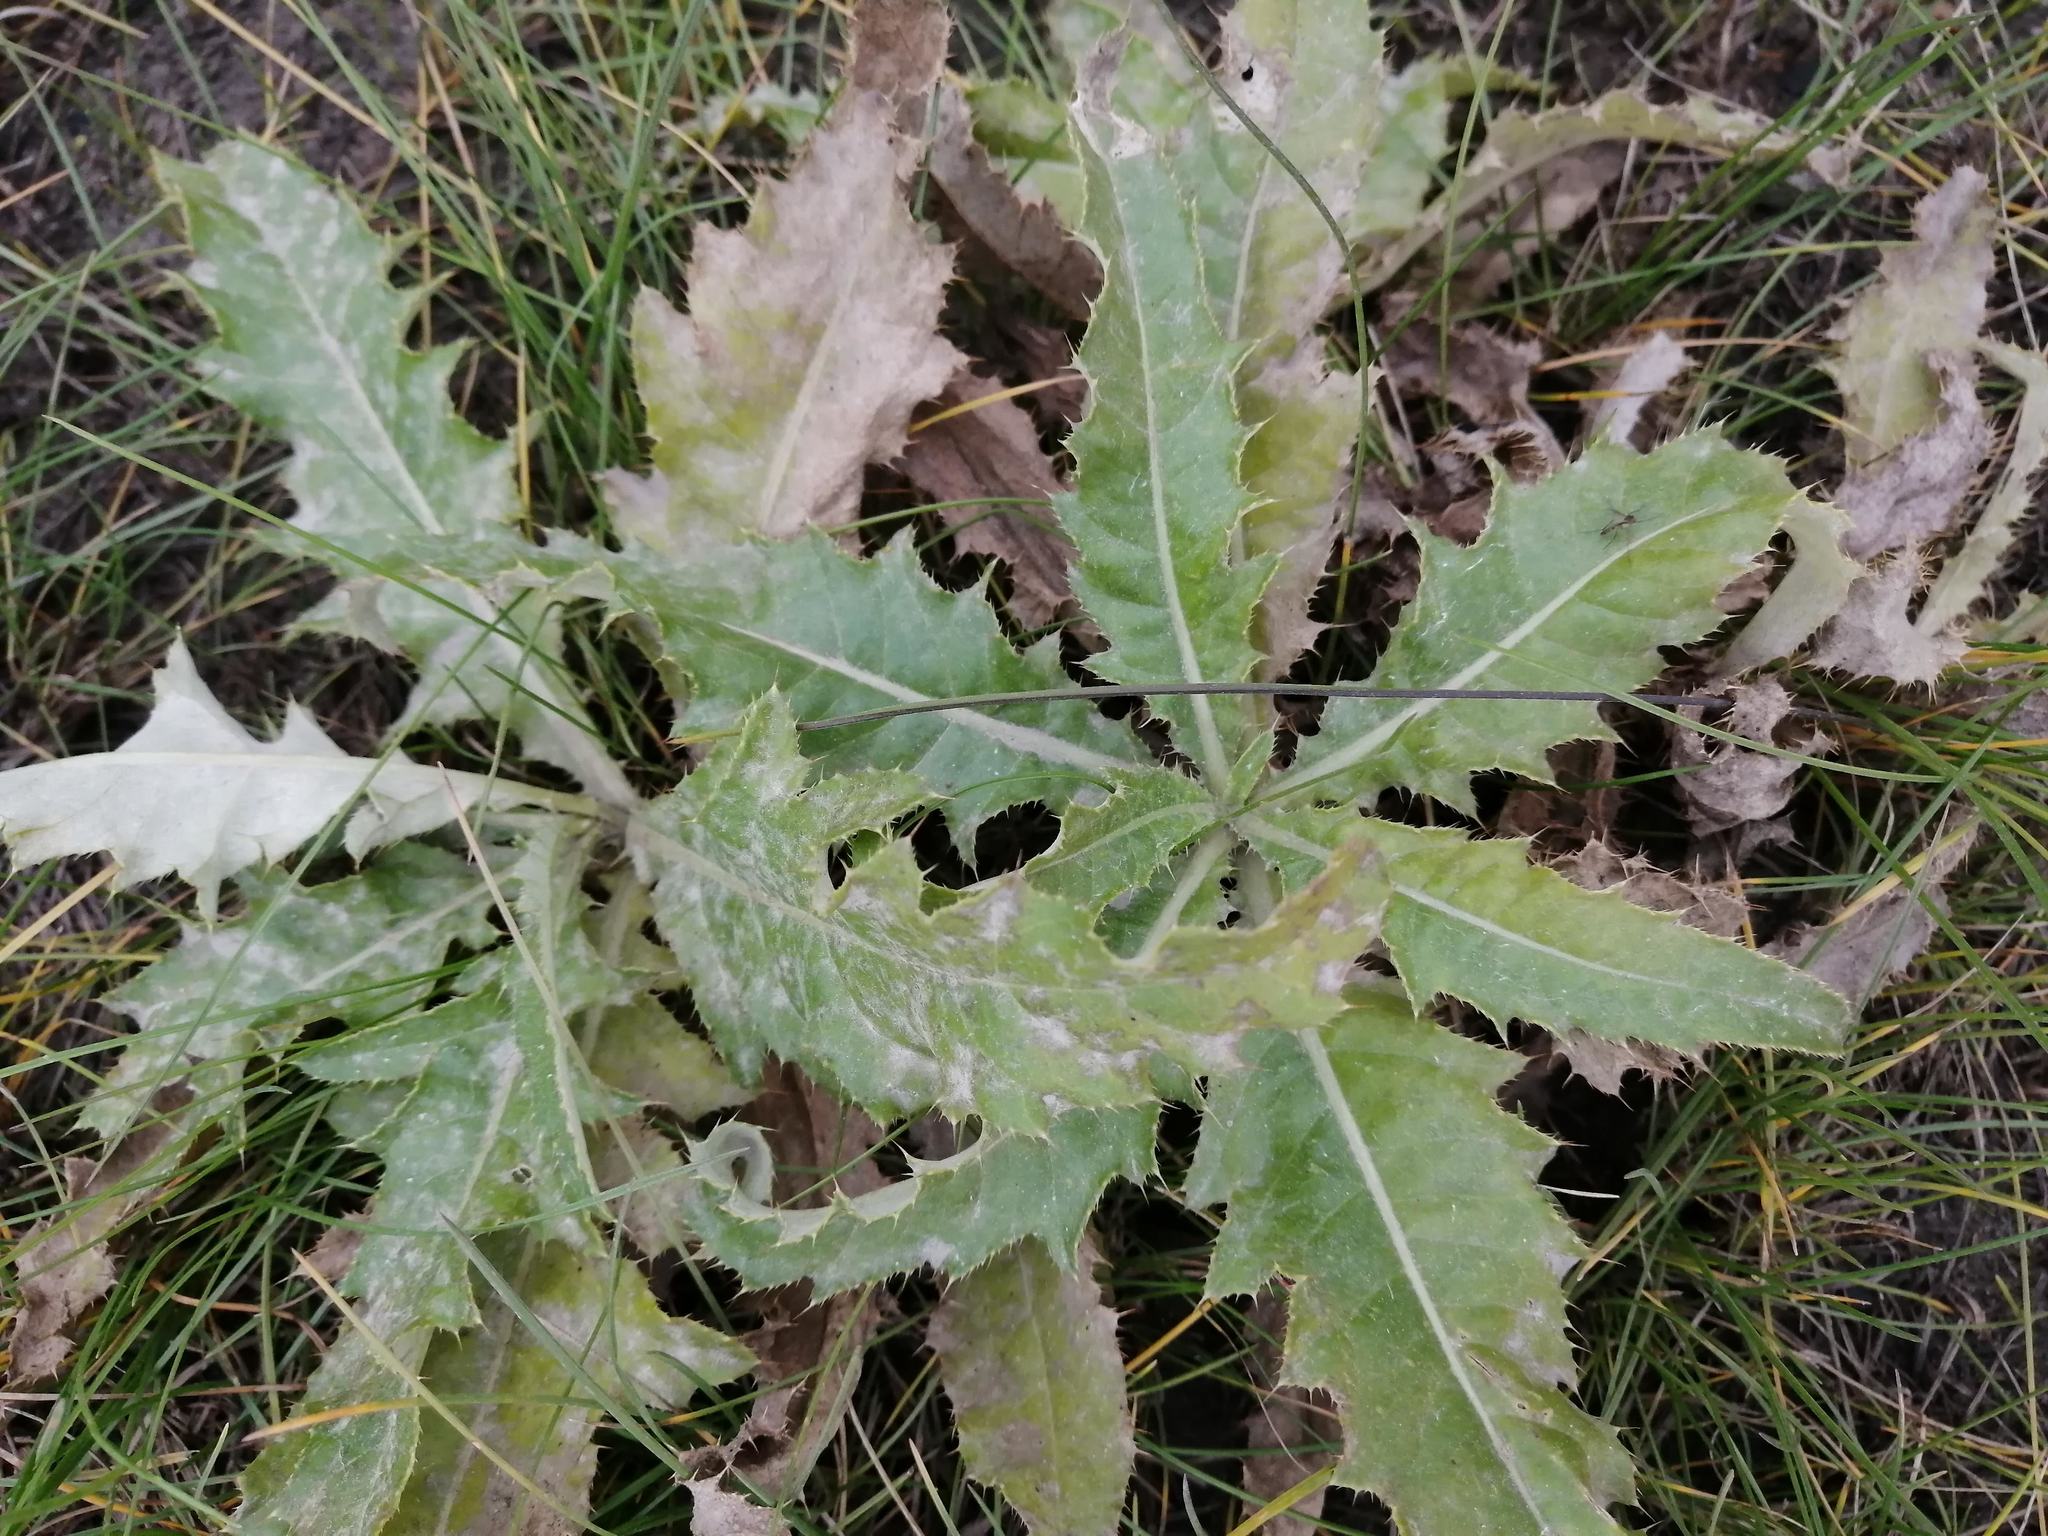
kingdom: Plantae
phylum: Tracheophyta
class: Magnoliopsida
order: Asterales
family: Asteraceae
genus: Cirsium
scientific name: Cirsium arvense
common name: Creeping thistle
